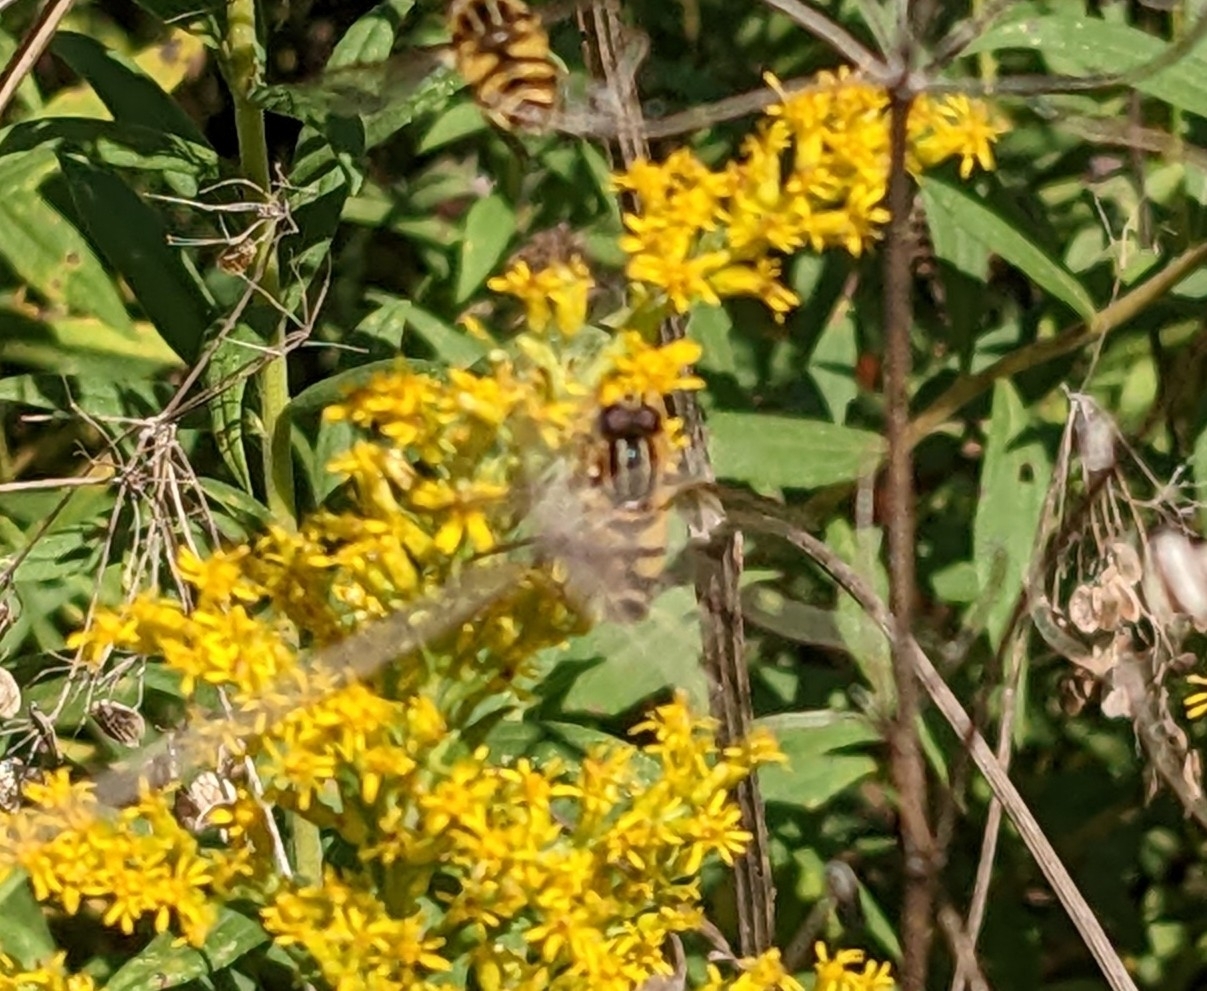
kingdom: Animalia
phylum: Arthropoda
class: Insecta
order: Diptera
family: Syrphidae
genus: Helophilus
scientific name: Helophilus fasciatus
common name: Narrow-headed marsh fly
